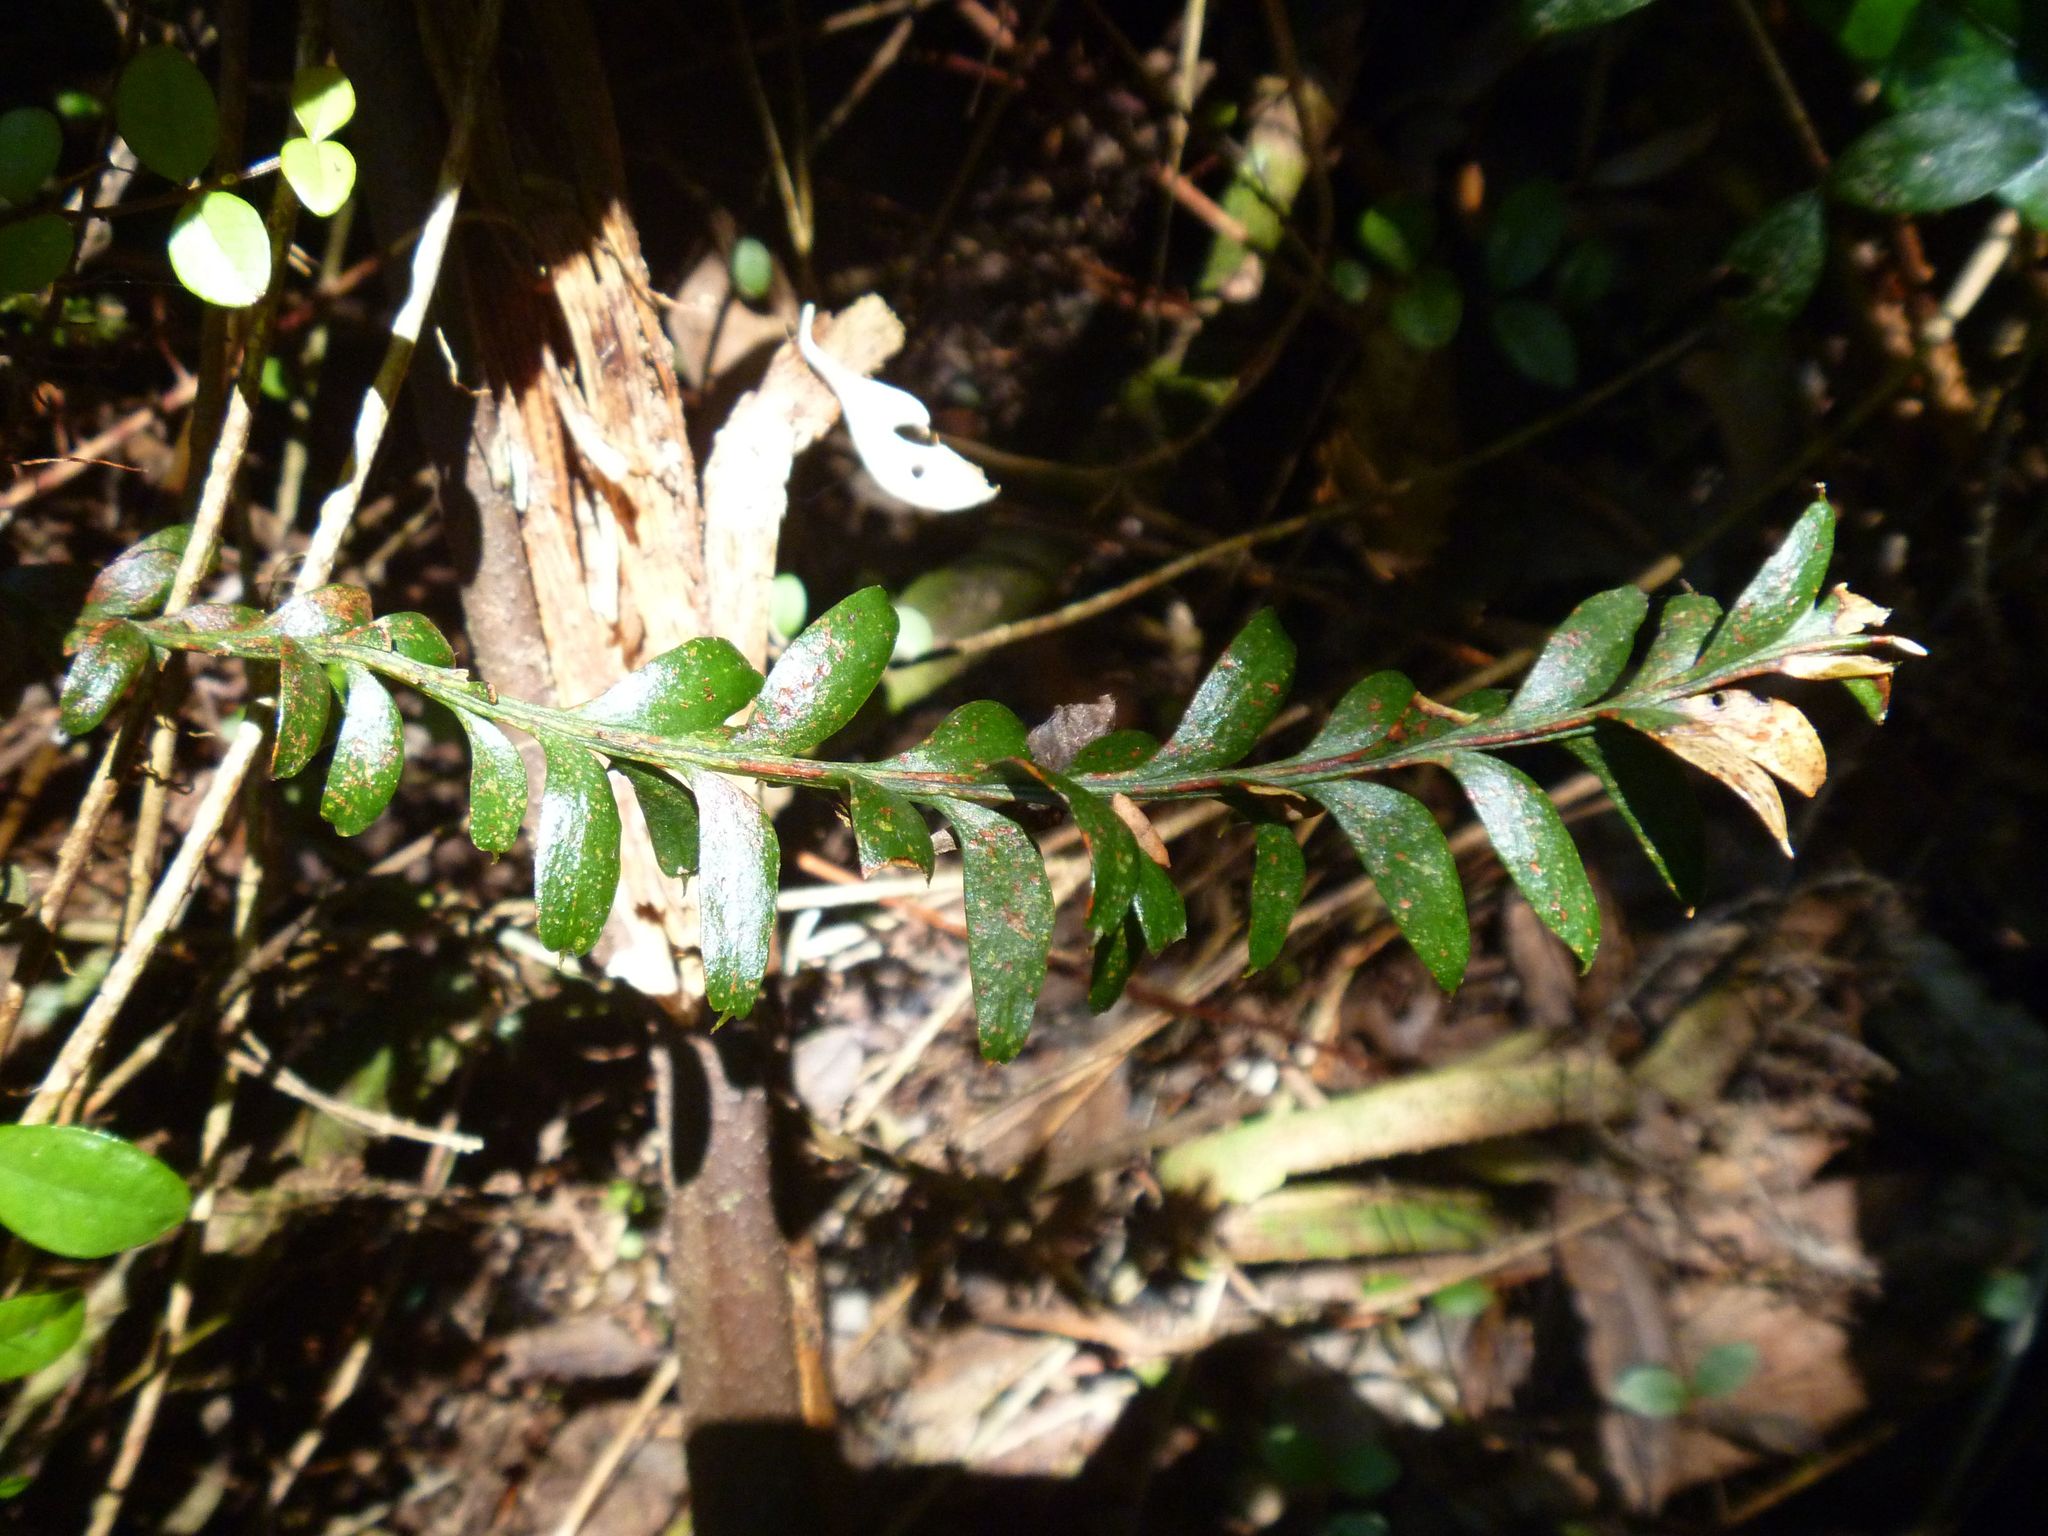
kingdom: Plantae
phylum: Tracheophyta
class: Polypodiopsida
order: Psilotales
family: Psilotaceae
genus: Tmesipteris
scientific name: Tmesipteris tannensis
